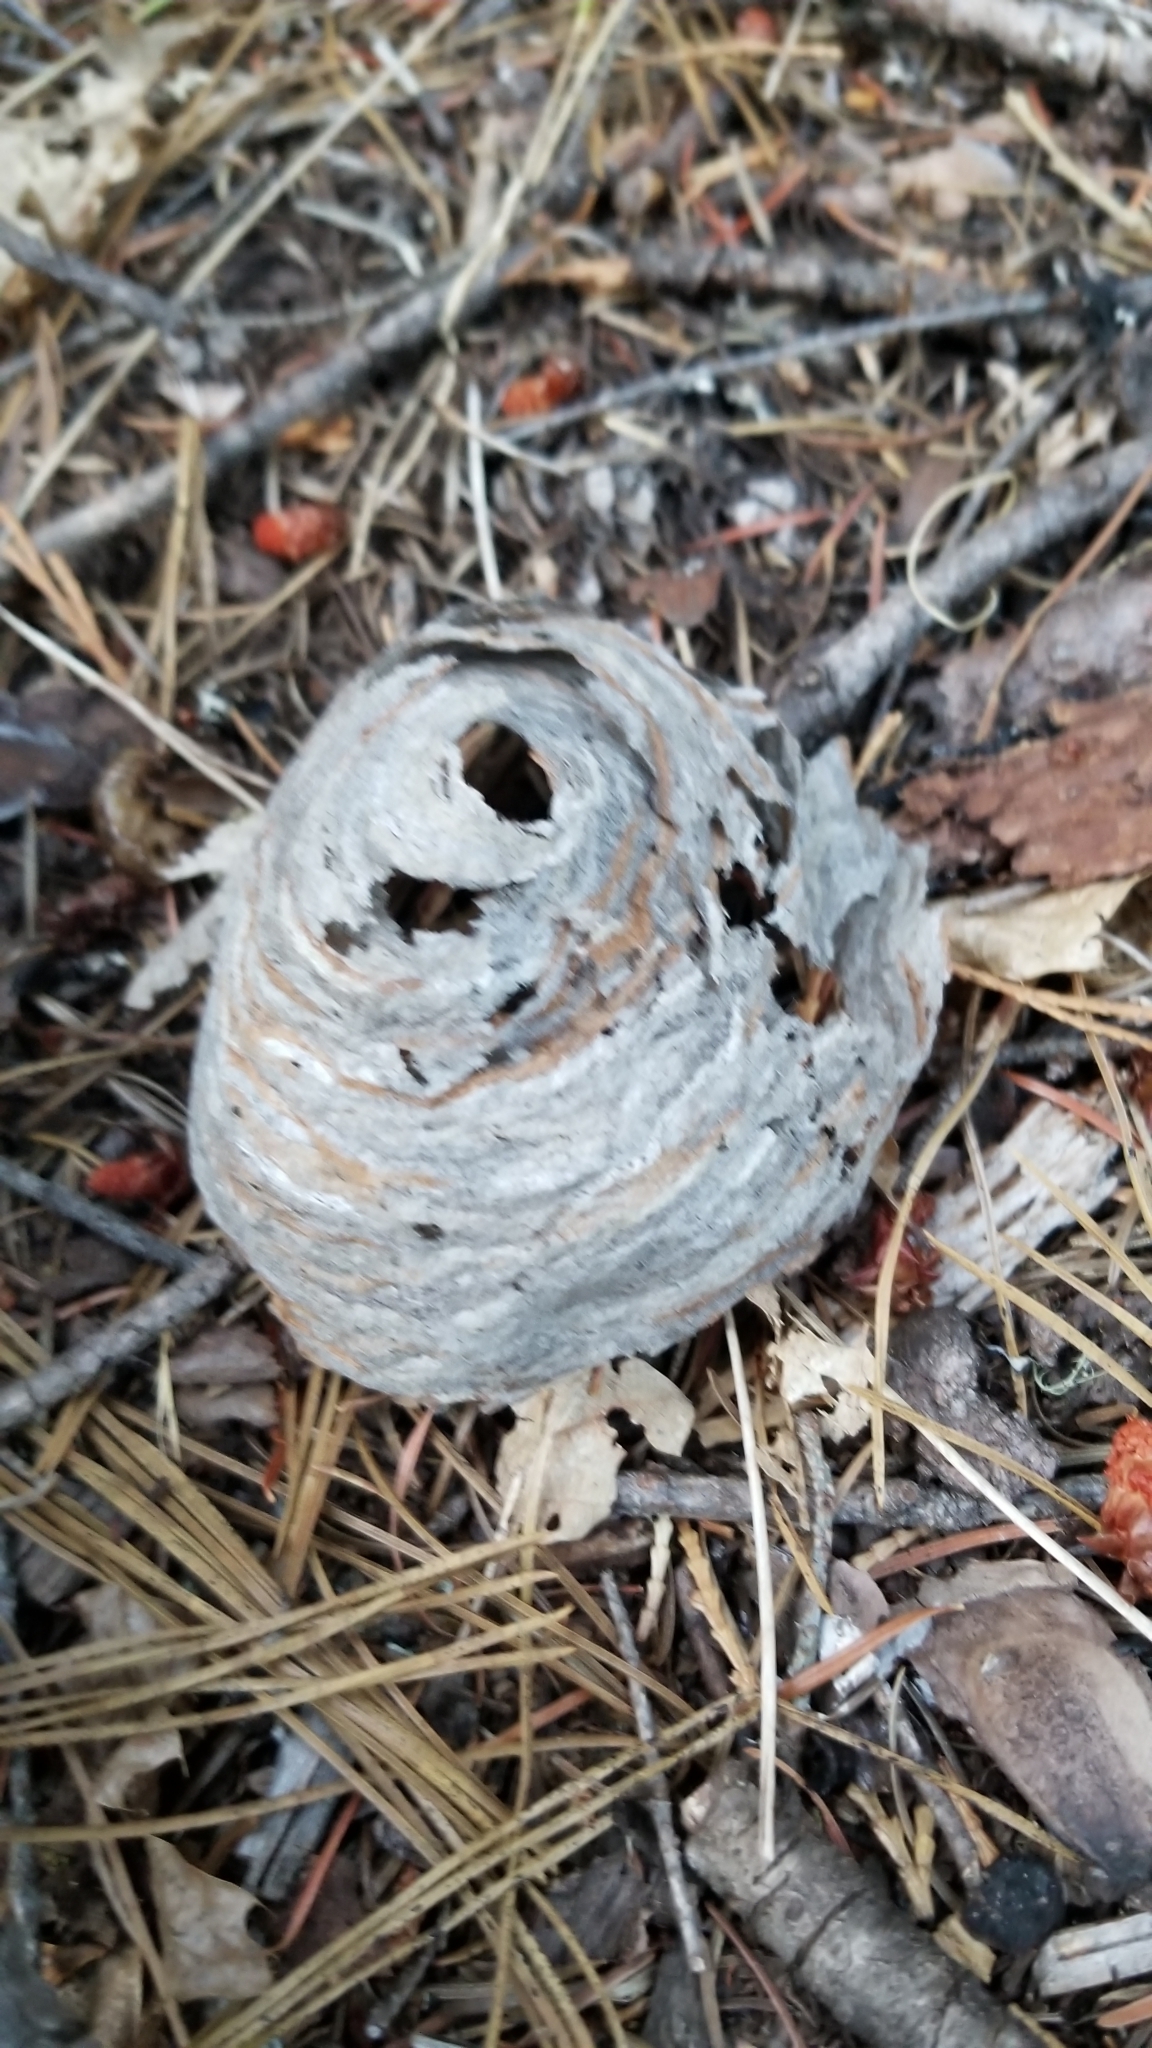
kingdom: Animalia
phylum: Arthropoda
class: Insecta
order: Hymenoptera
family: Vespidae
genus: Dolichovespula
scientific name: Dolichovespula
